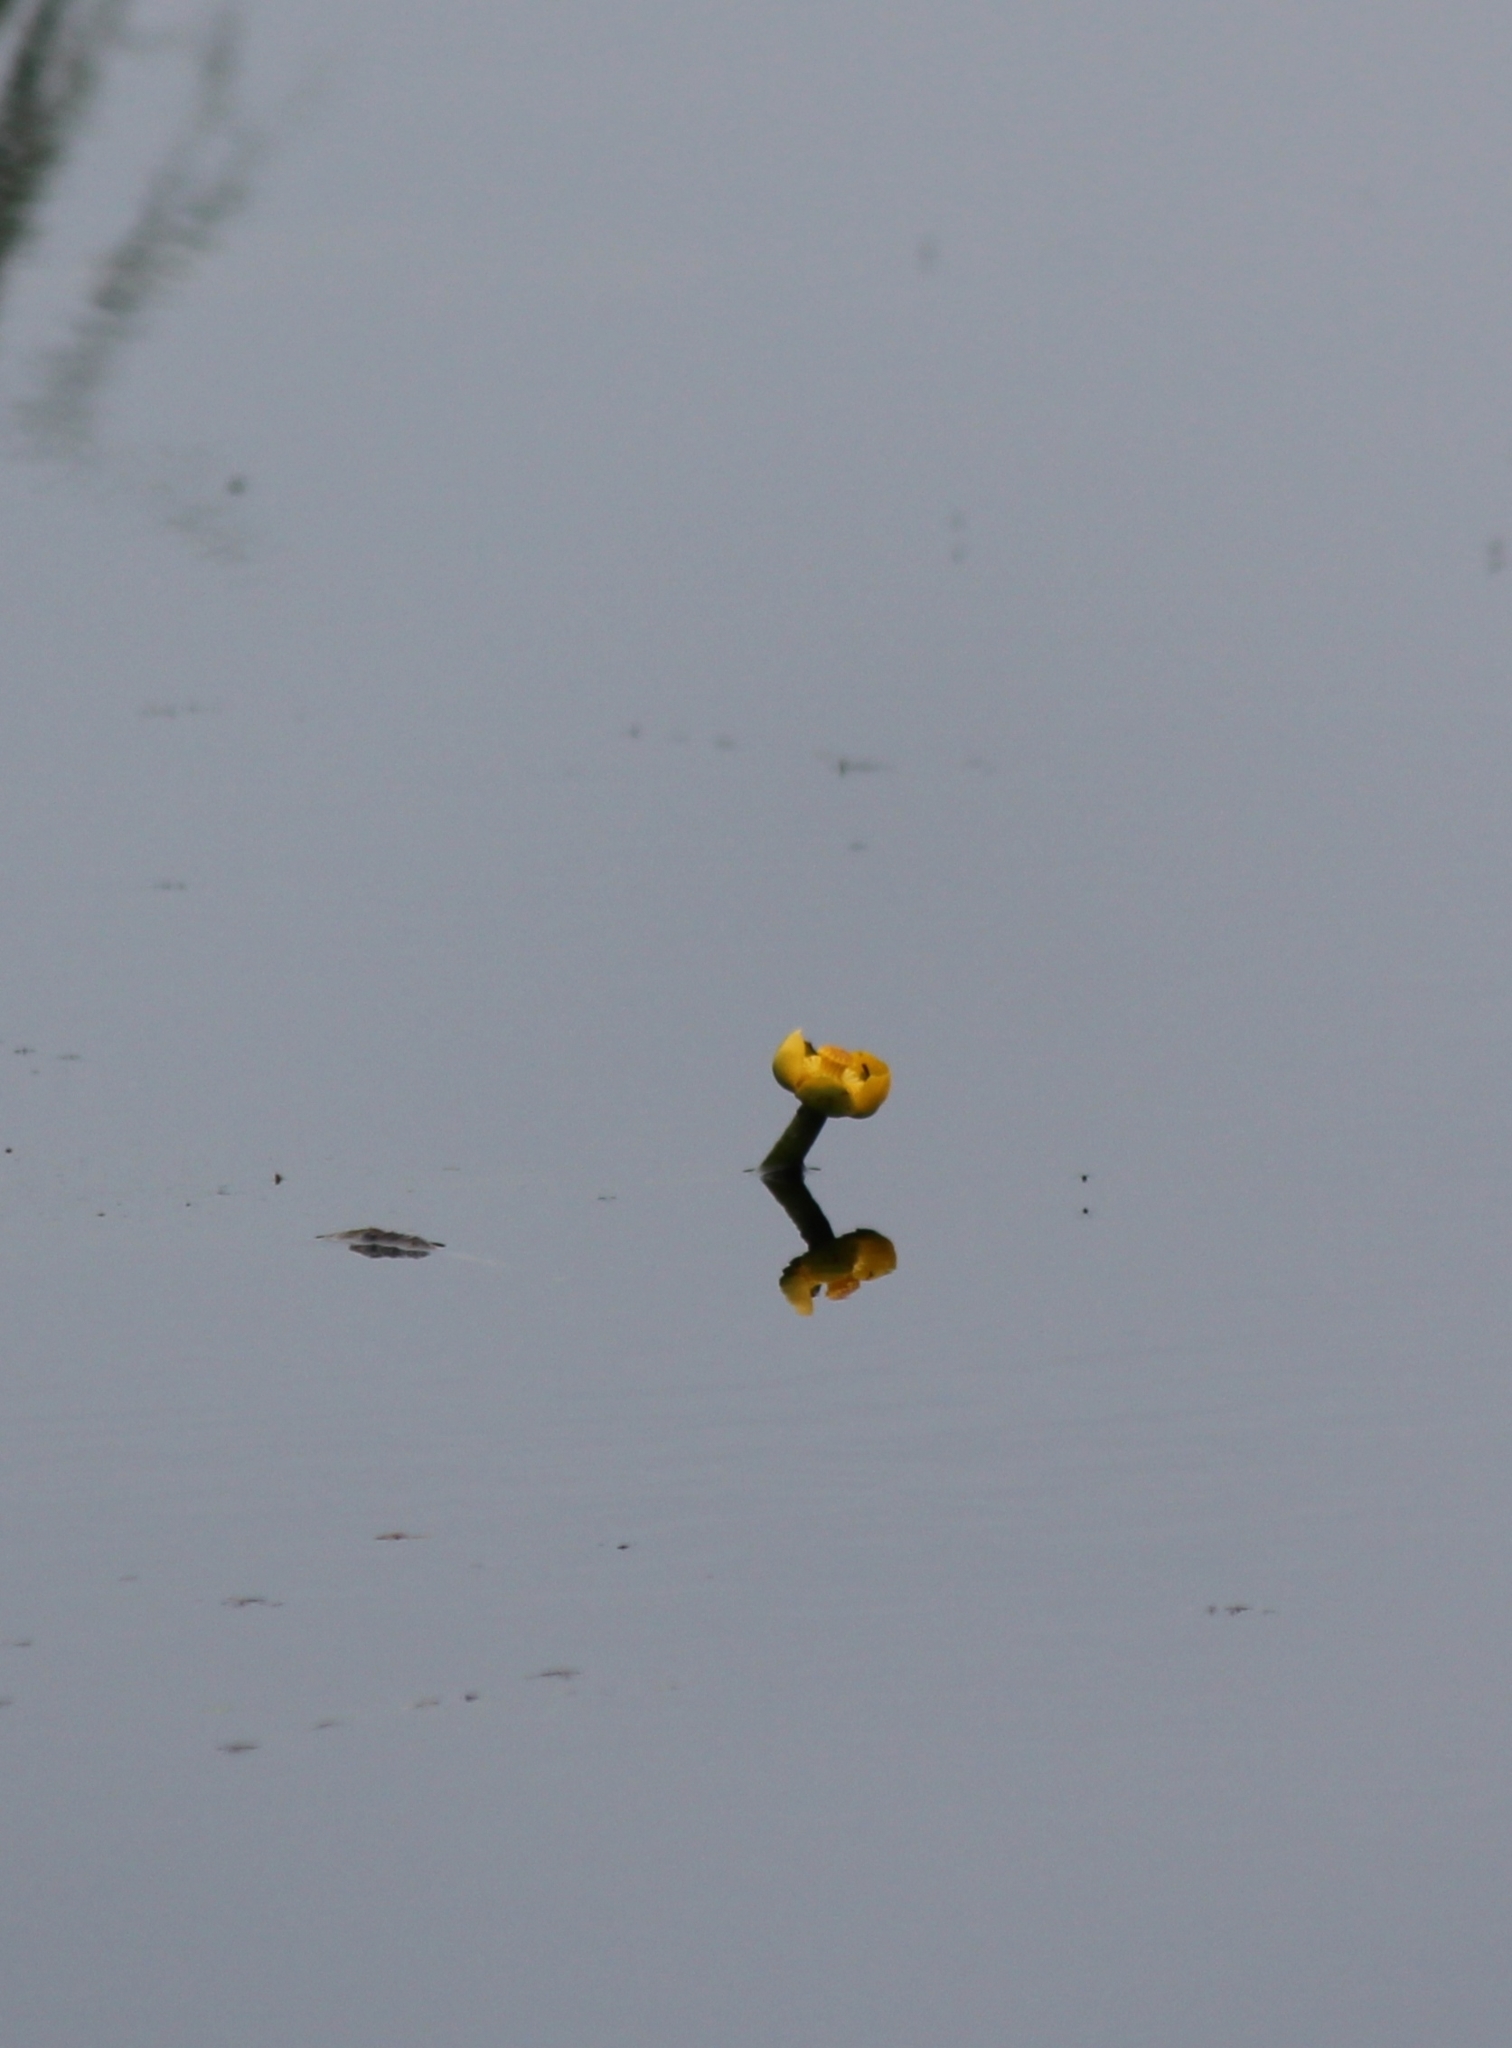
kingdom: Plantae
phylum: Tracheophyta
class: Magnoliopsida
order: Nymphaeales
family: Nymphaeaceae
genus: Nuphar
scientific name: Nuphar lutea
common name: Yellow water-lily
